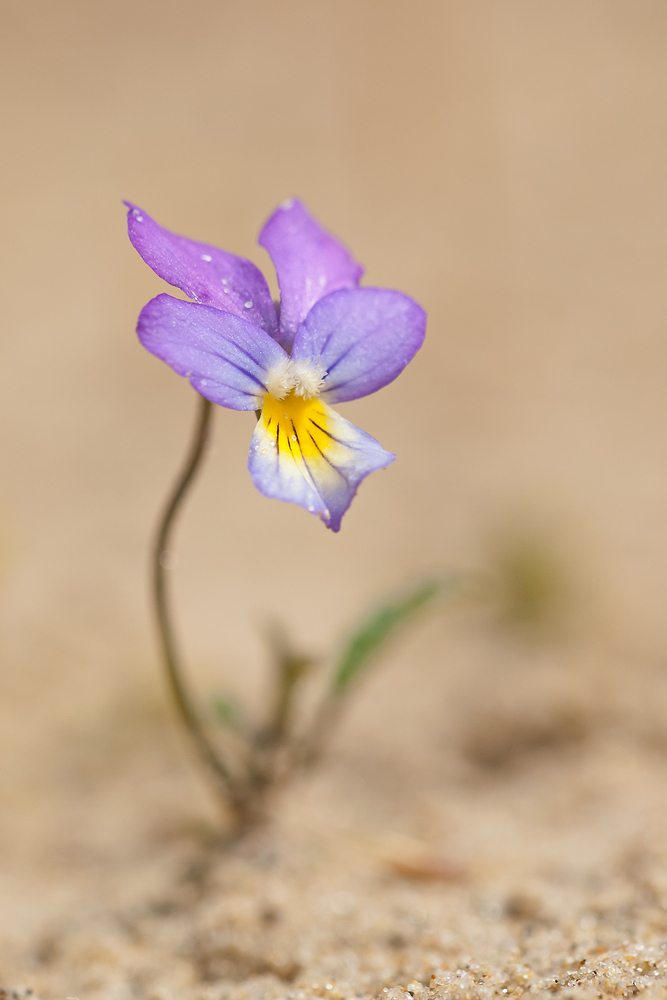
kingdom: Plantae
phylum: Tracheophyta
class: Magnoliopsida
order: Malpighiales
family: Violaceae
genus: Viola
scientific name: Viola tricolor
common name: Pansy
